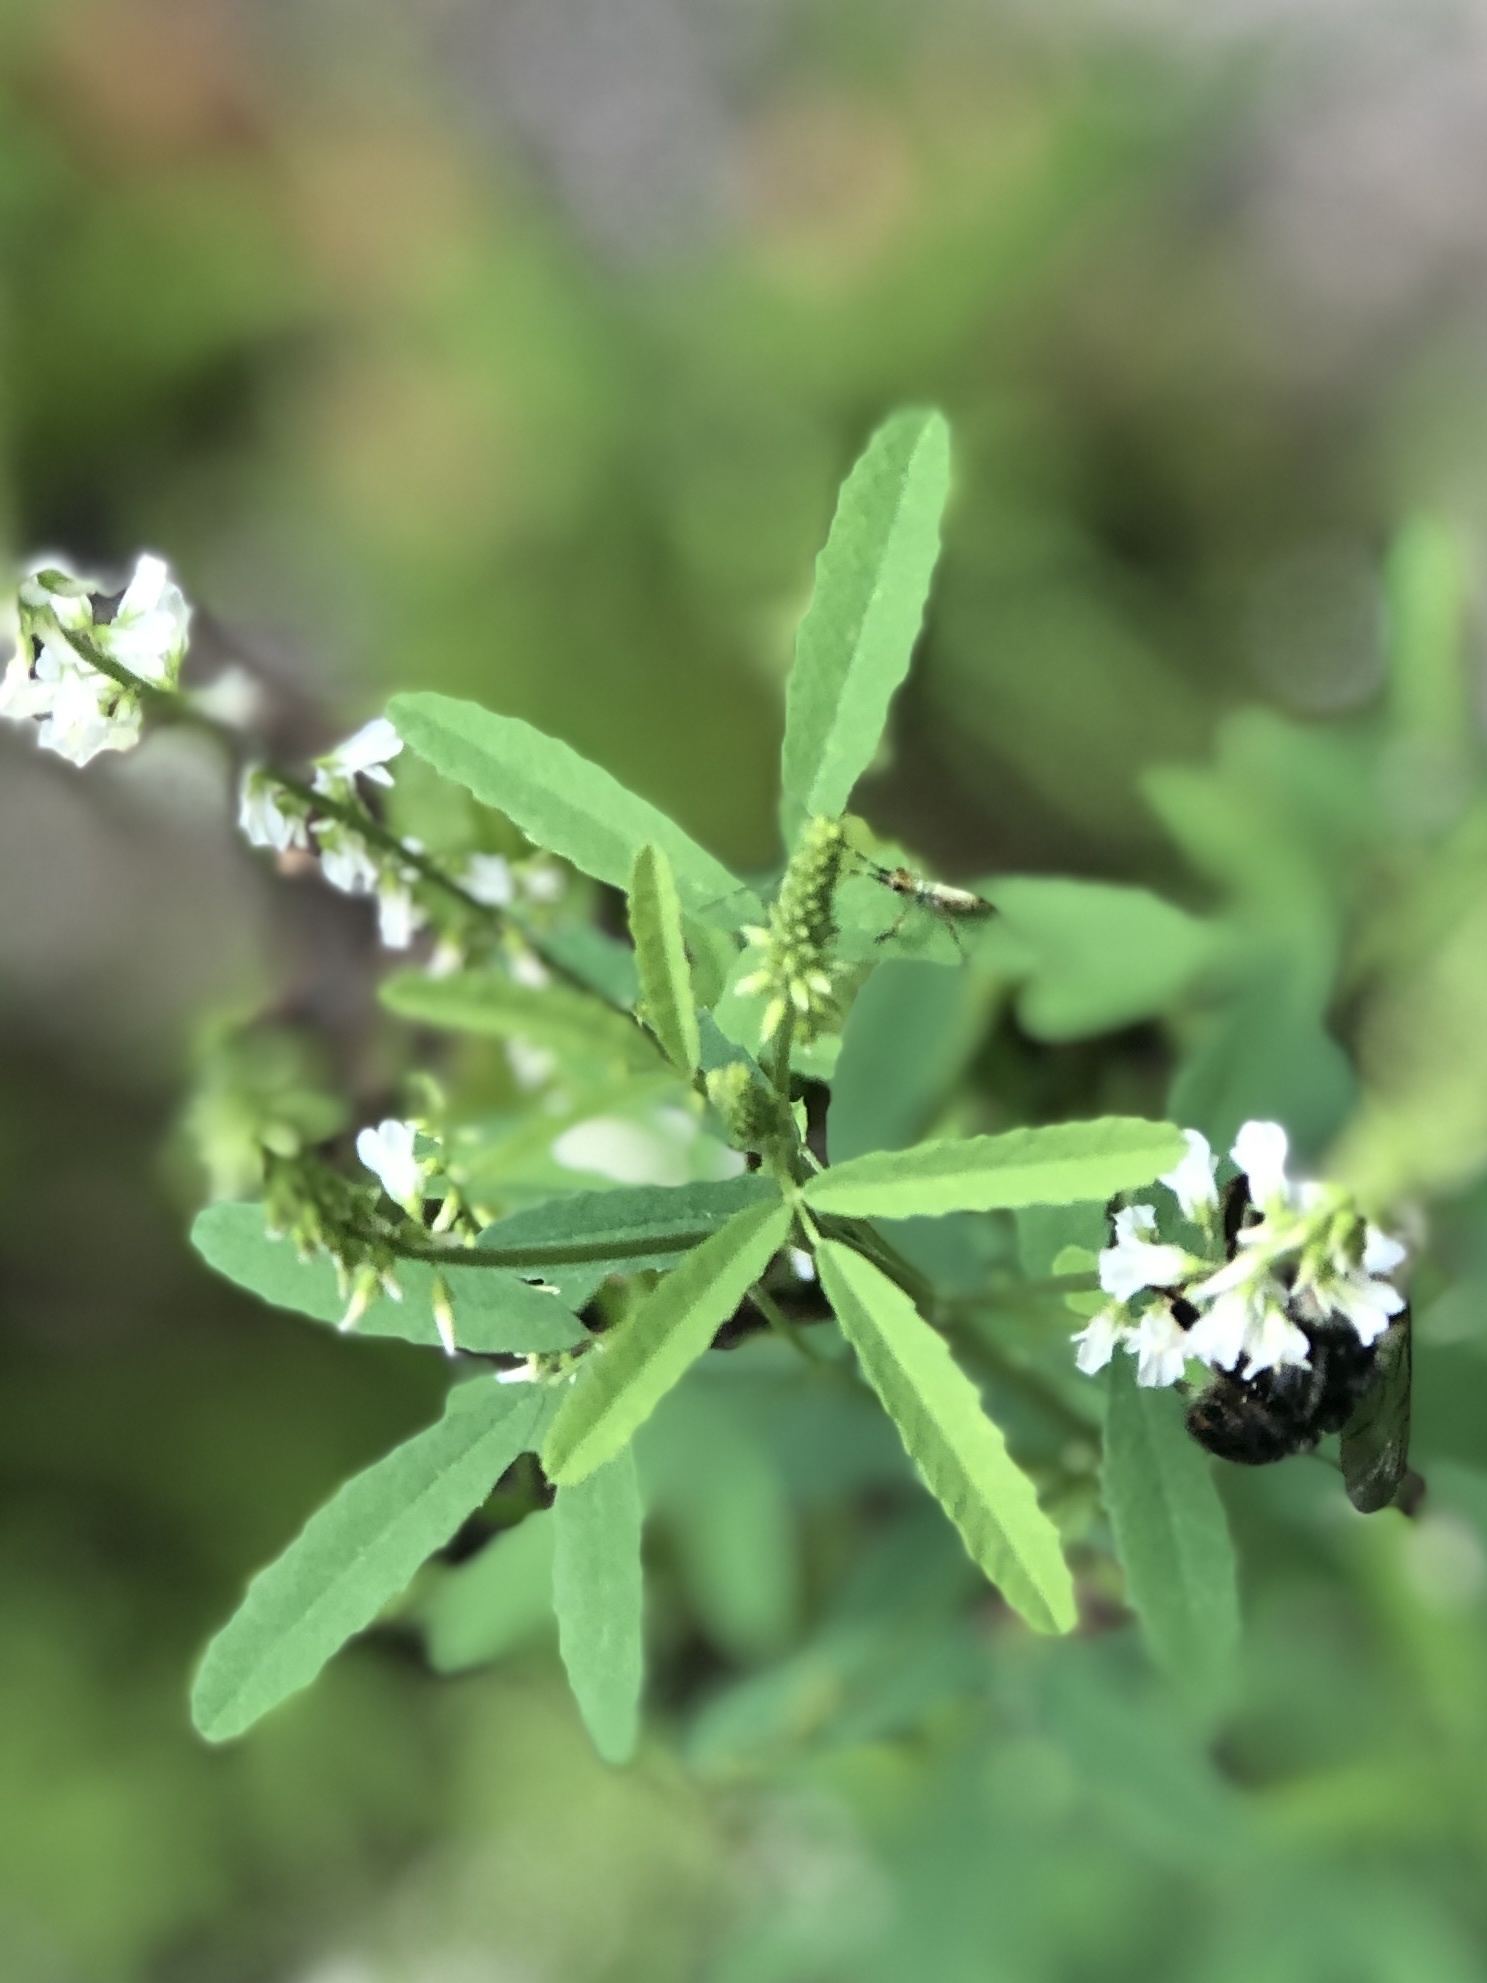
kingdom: Plantae
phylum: Tracheophyta
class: Magnoliopsida
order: Fabales
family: Fabaceae
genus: Melilotus
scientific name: Melilotus albus
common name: White melilot
